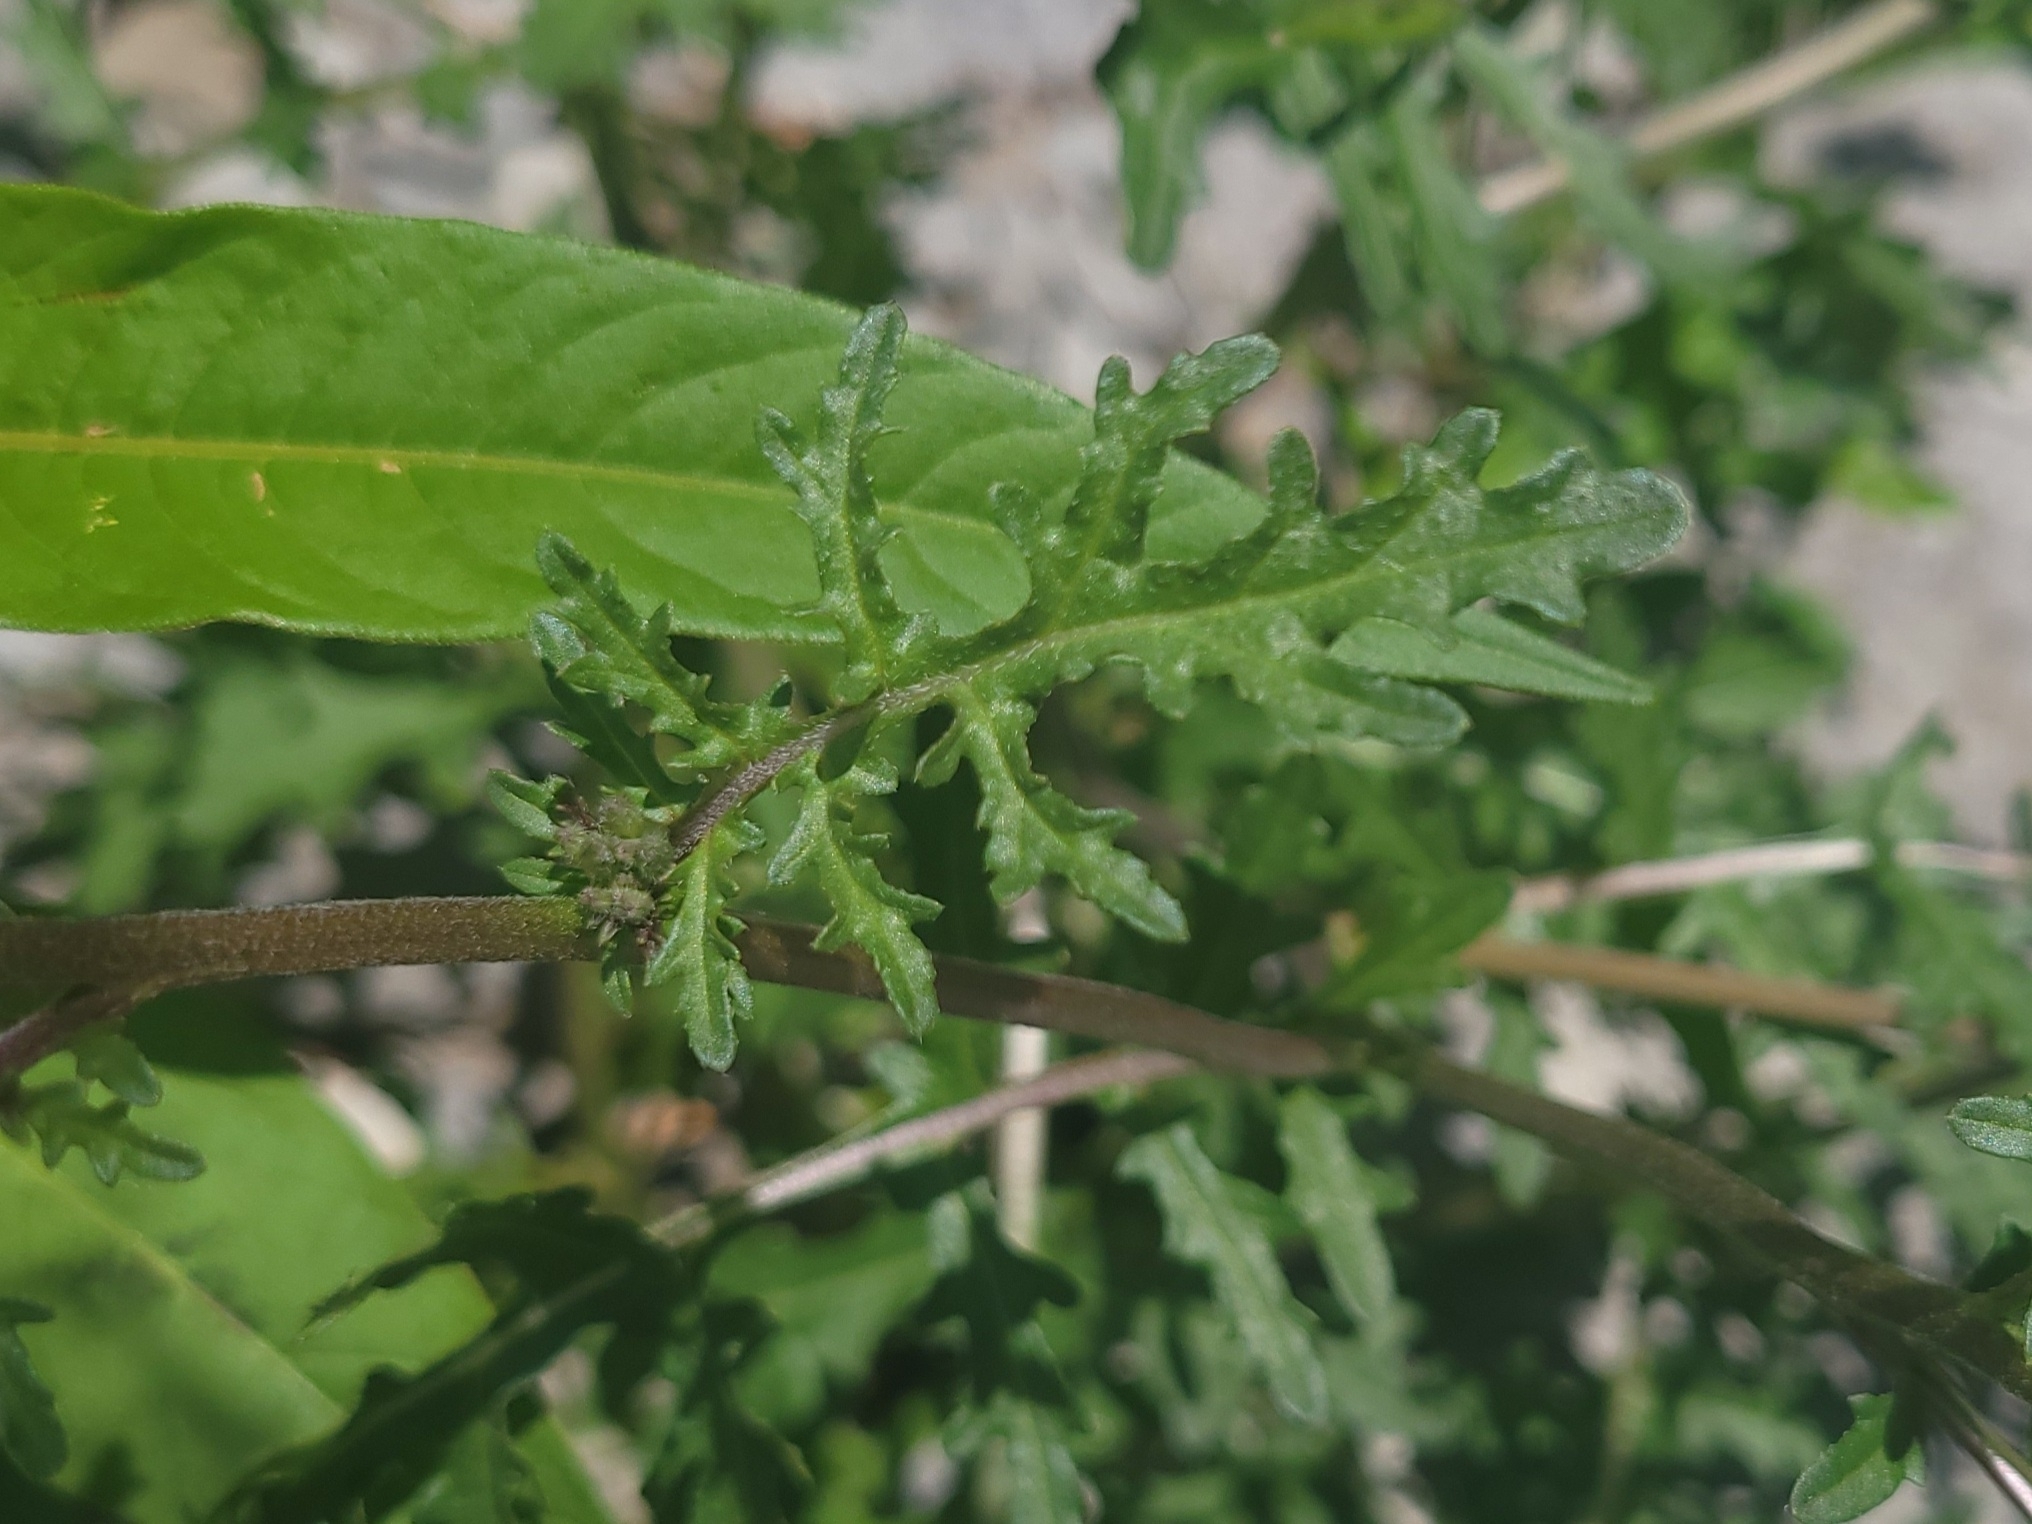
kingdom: Plantae
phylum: Tracheophyta
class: Magnoliopsida
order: Brassicales
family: Brassicaceae
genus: Erucastrum
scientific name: Erucastrum gallicum
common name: Hairy rocket
